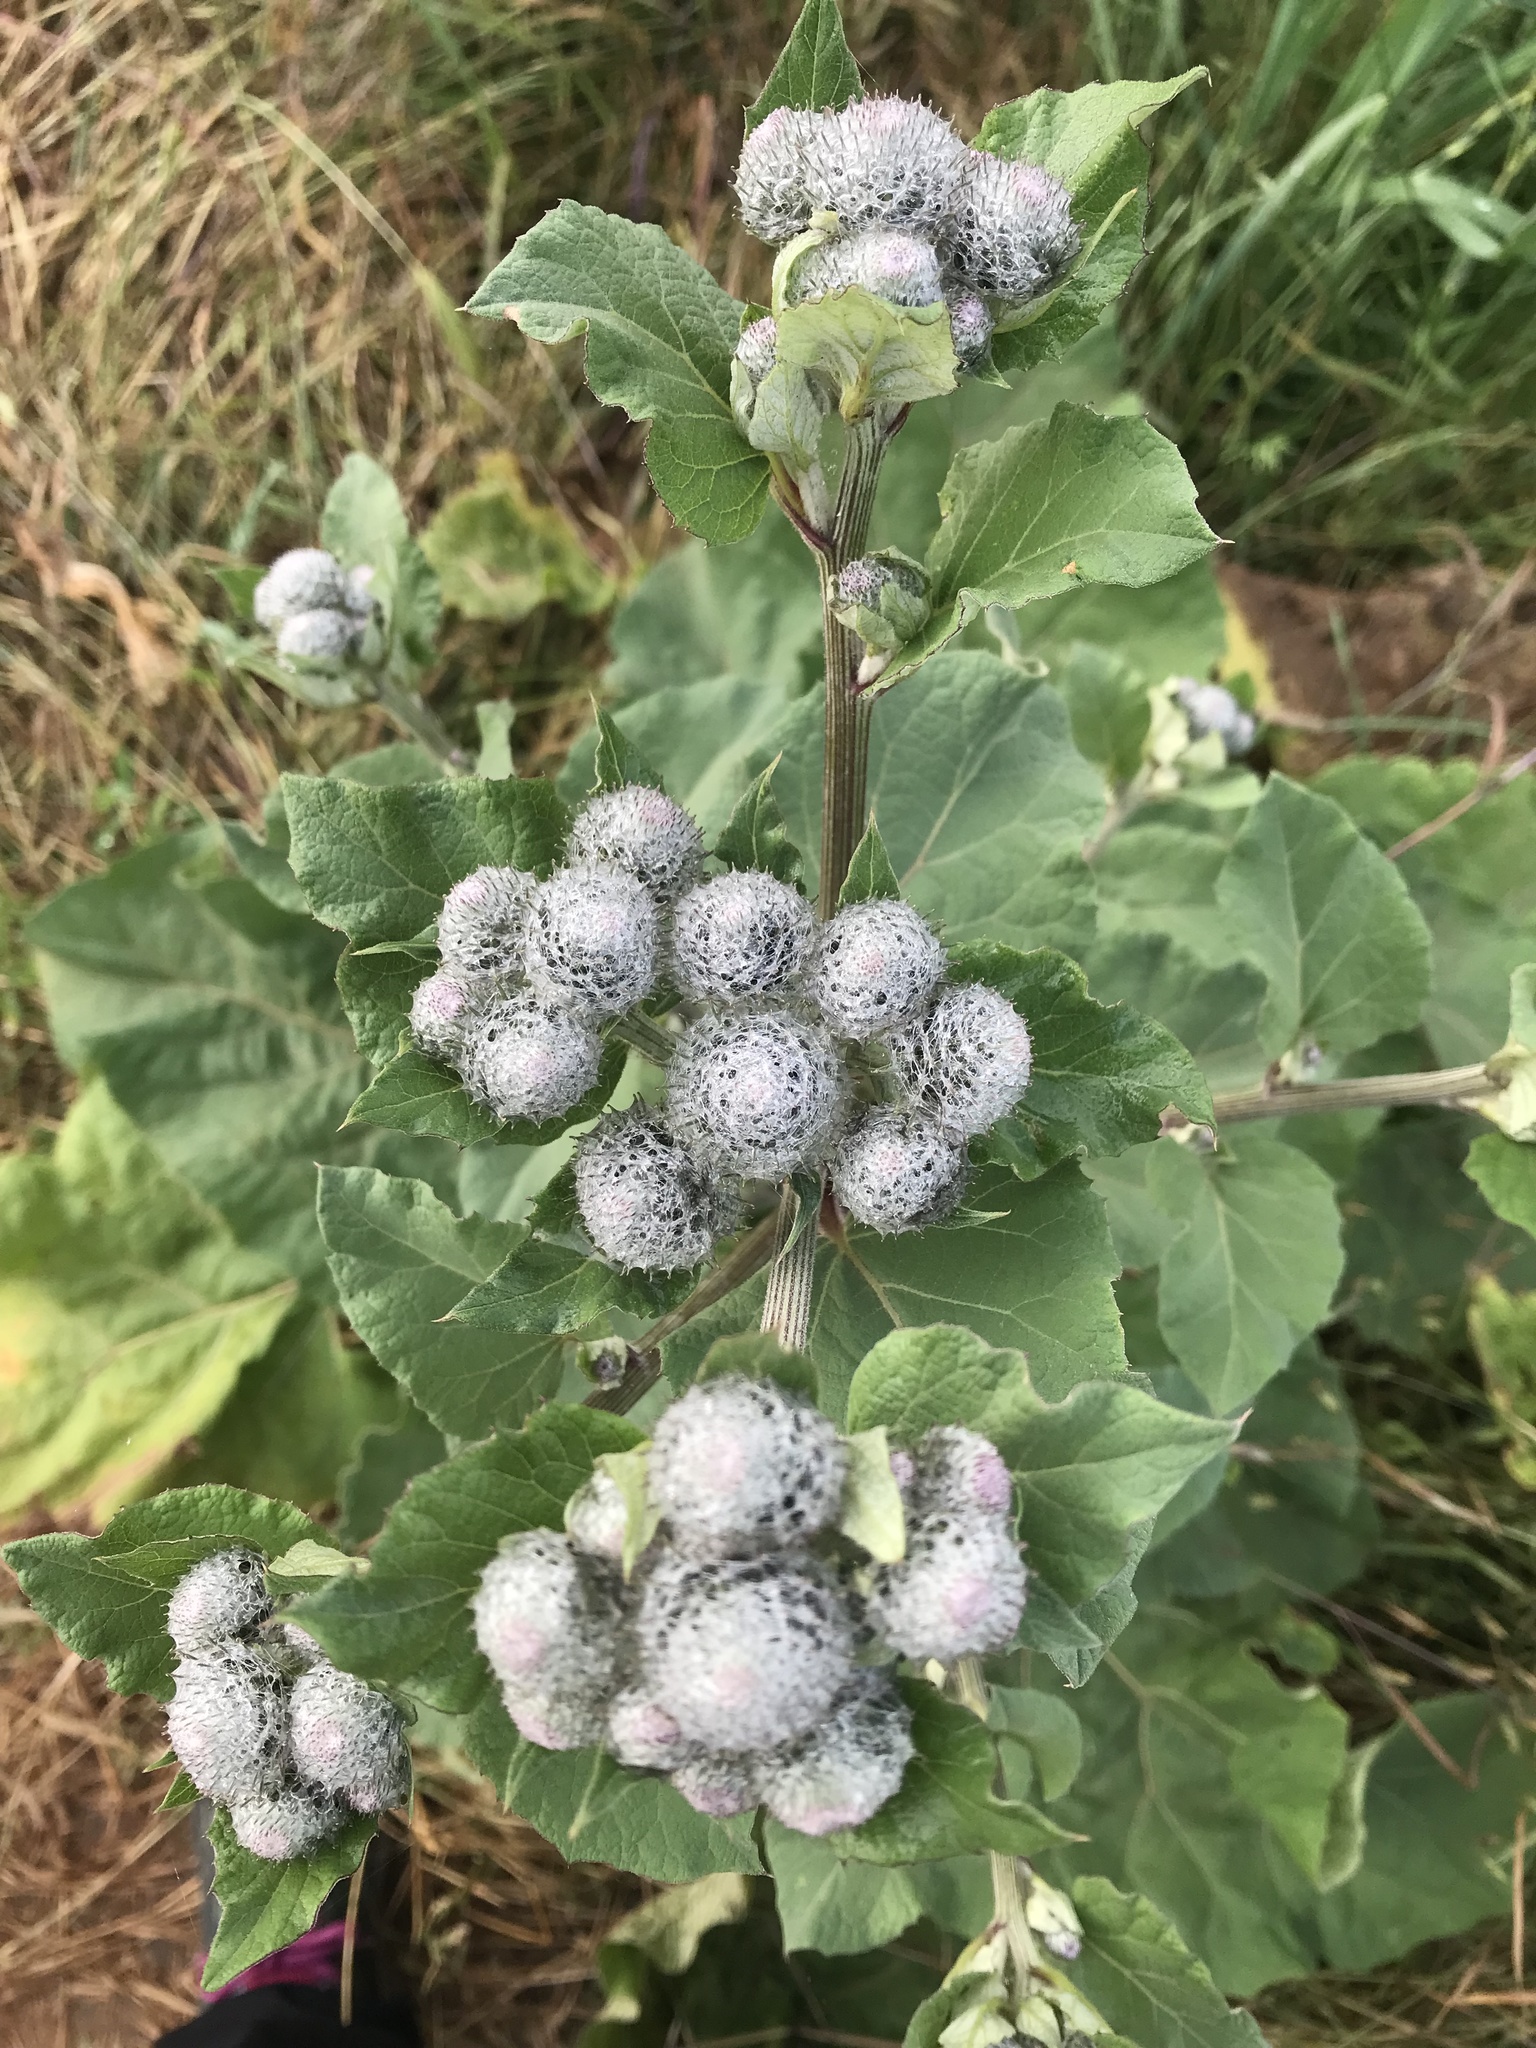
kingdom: Plantae
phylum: Tracheophyta
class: Magnoliopsida
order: Asterales
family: Asteraceae
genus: Arctium
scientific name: Arctium tomentosum
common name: Woolly burdock
